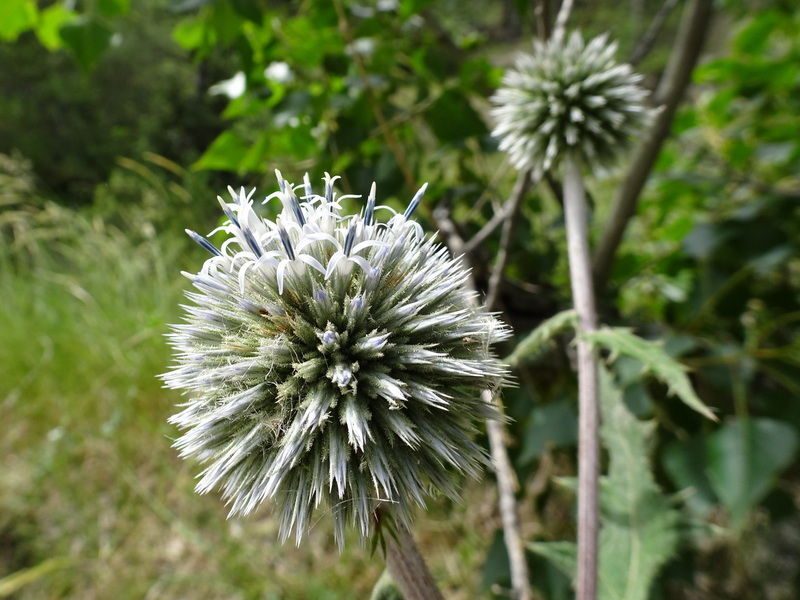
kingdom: Plantae
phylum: Tracheophyta
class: Magnoliopsida
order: Asterales
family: Asteraceae
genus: Echinops
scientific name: Echinops sphaerocephalus
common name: Glandular globe-thistle
